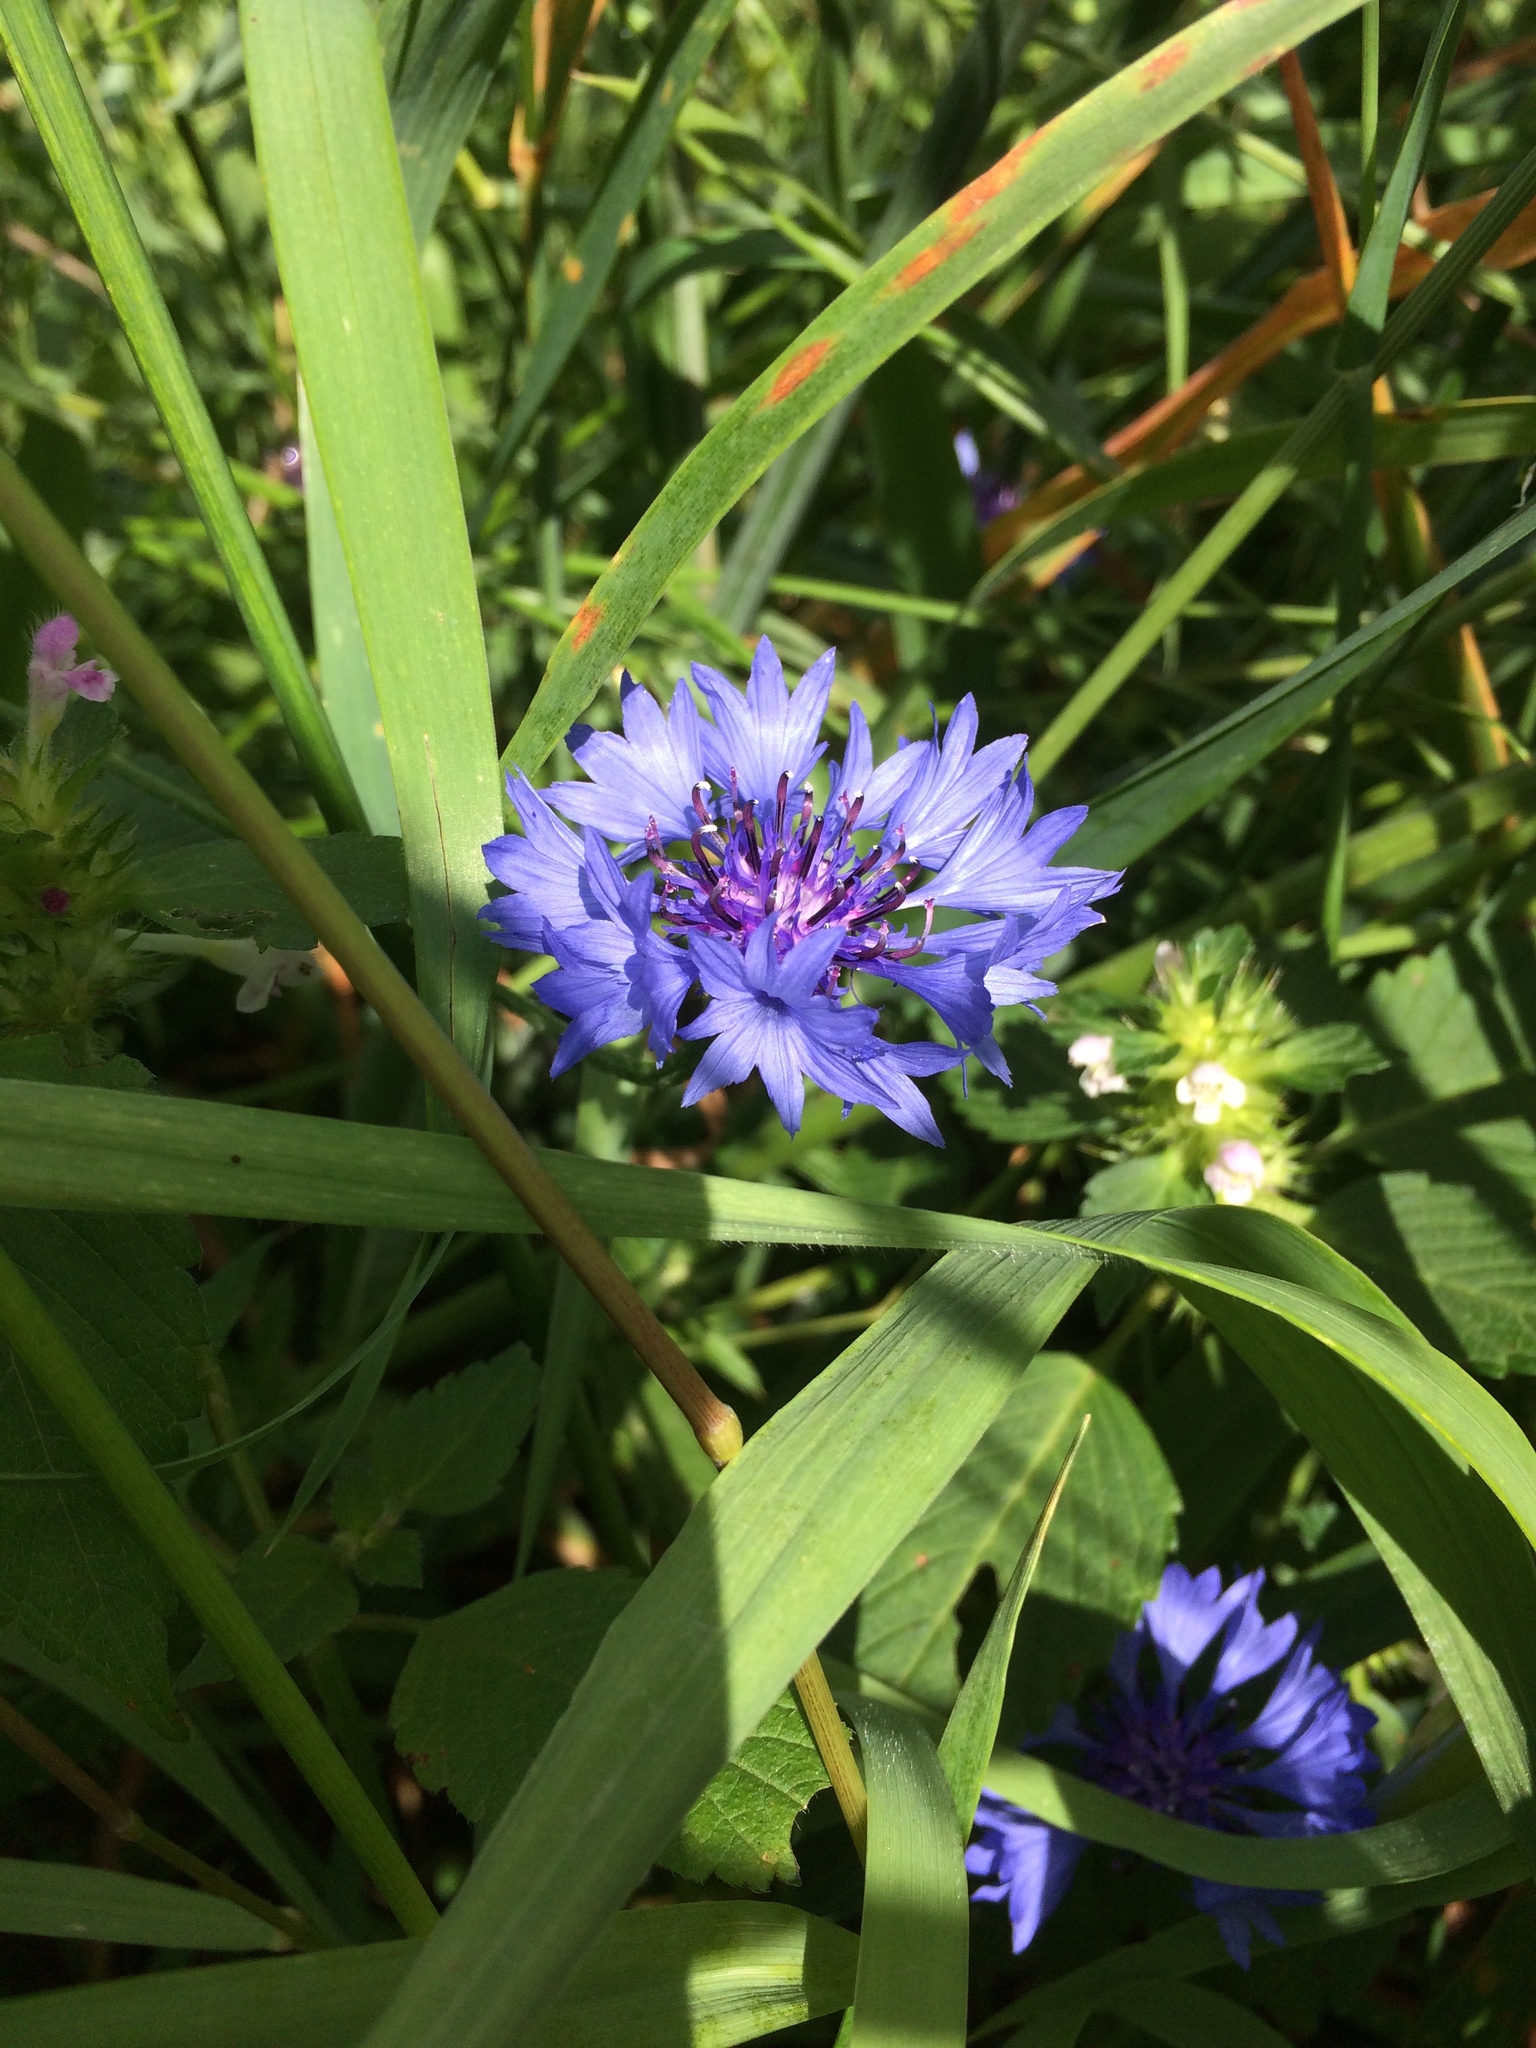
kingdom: Plantae
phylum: Tracheophyta
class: Magnoliopsida
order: Asterales
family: Asteraceae
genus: Centaurea
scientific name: Centaurea cyanus
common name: Cornflower
